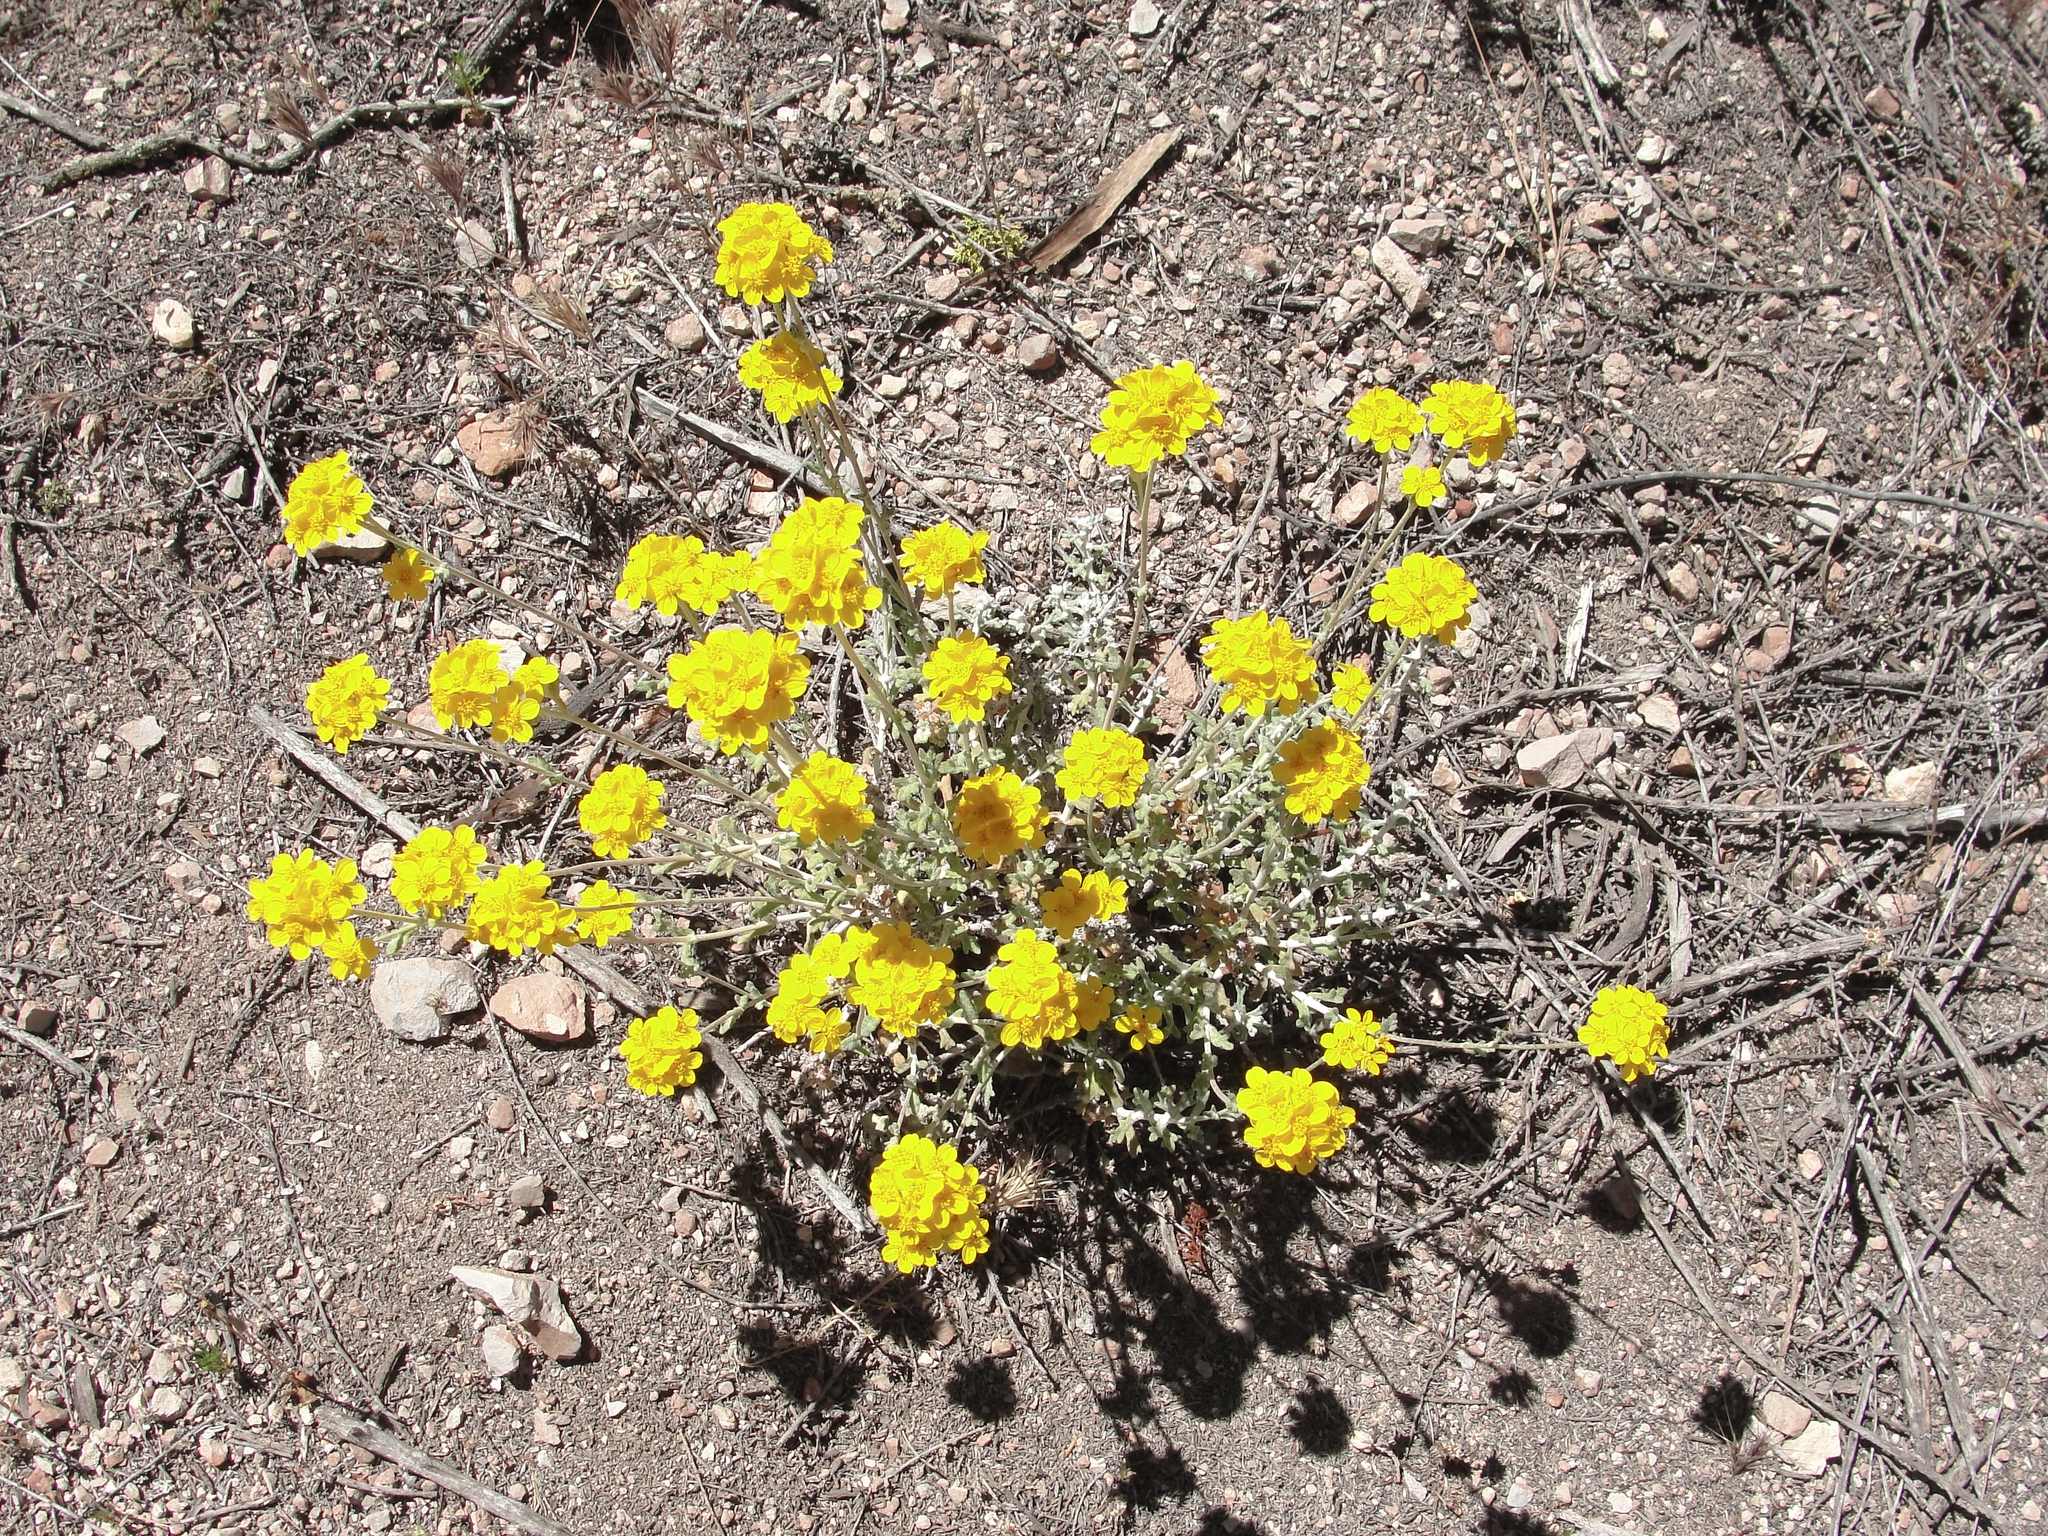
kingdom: Plantae
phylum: Tracheophyta
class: Magnoliopsida
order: Asterales
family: Asteraceae
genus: Eriophyllum
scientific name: Eriophyllum confertiflorum
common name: Golden-yarrow
